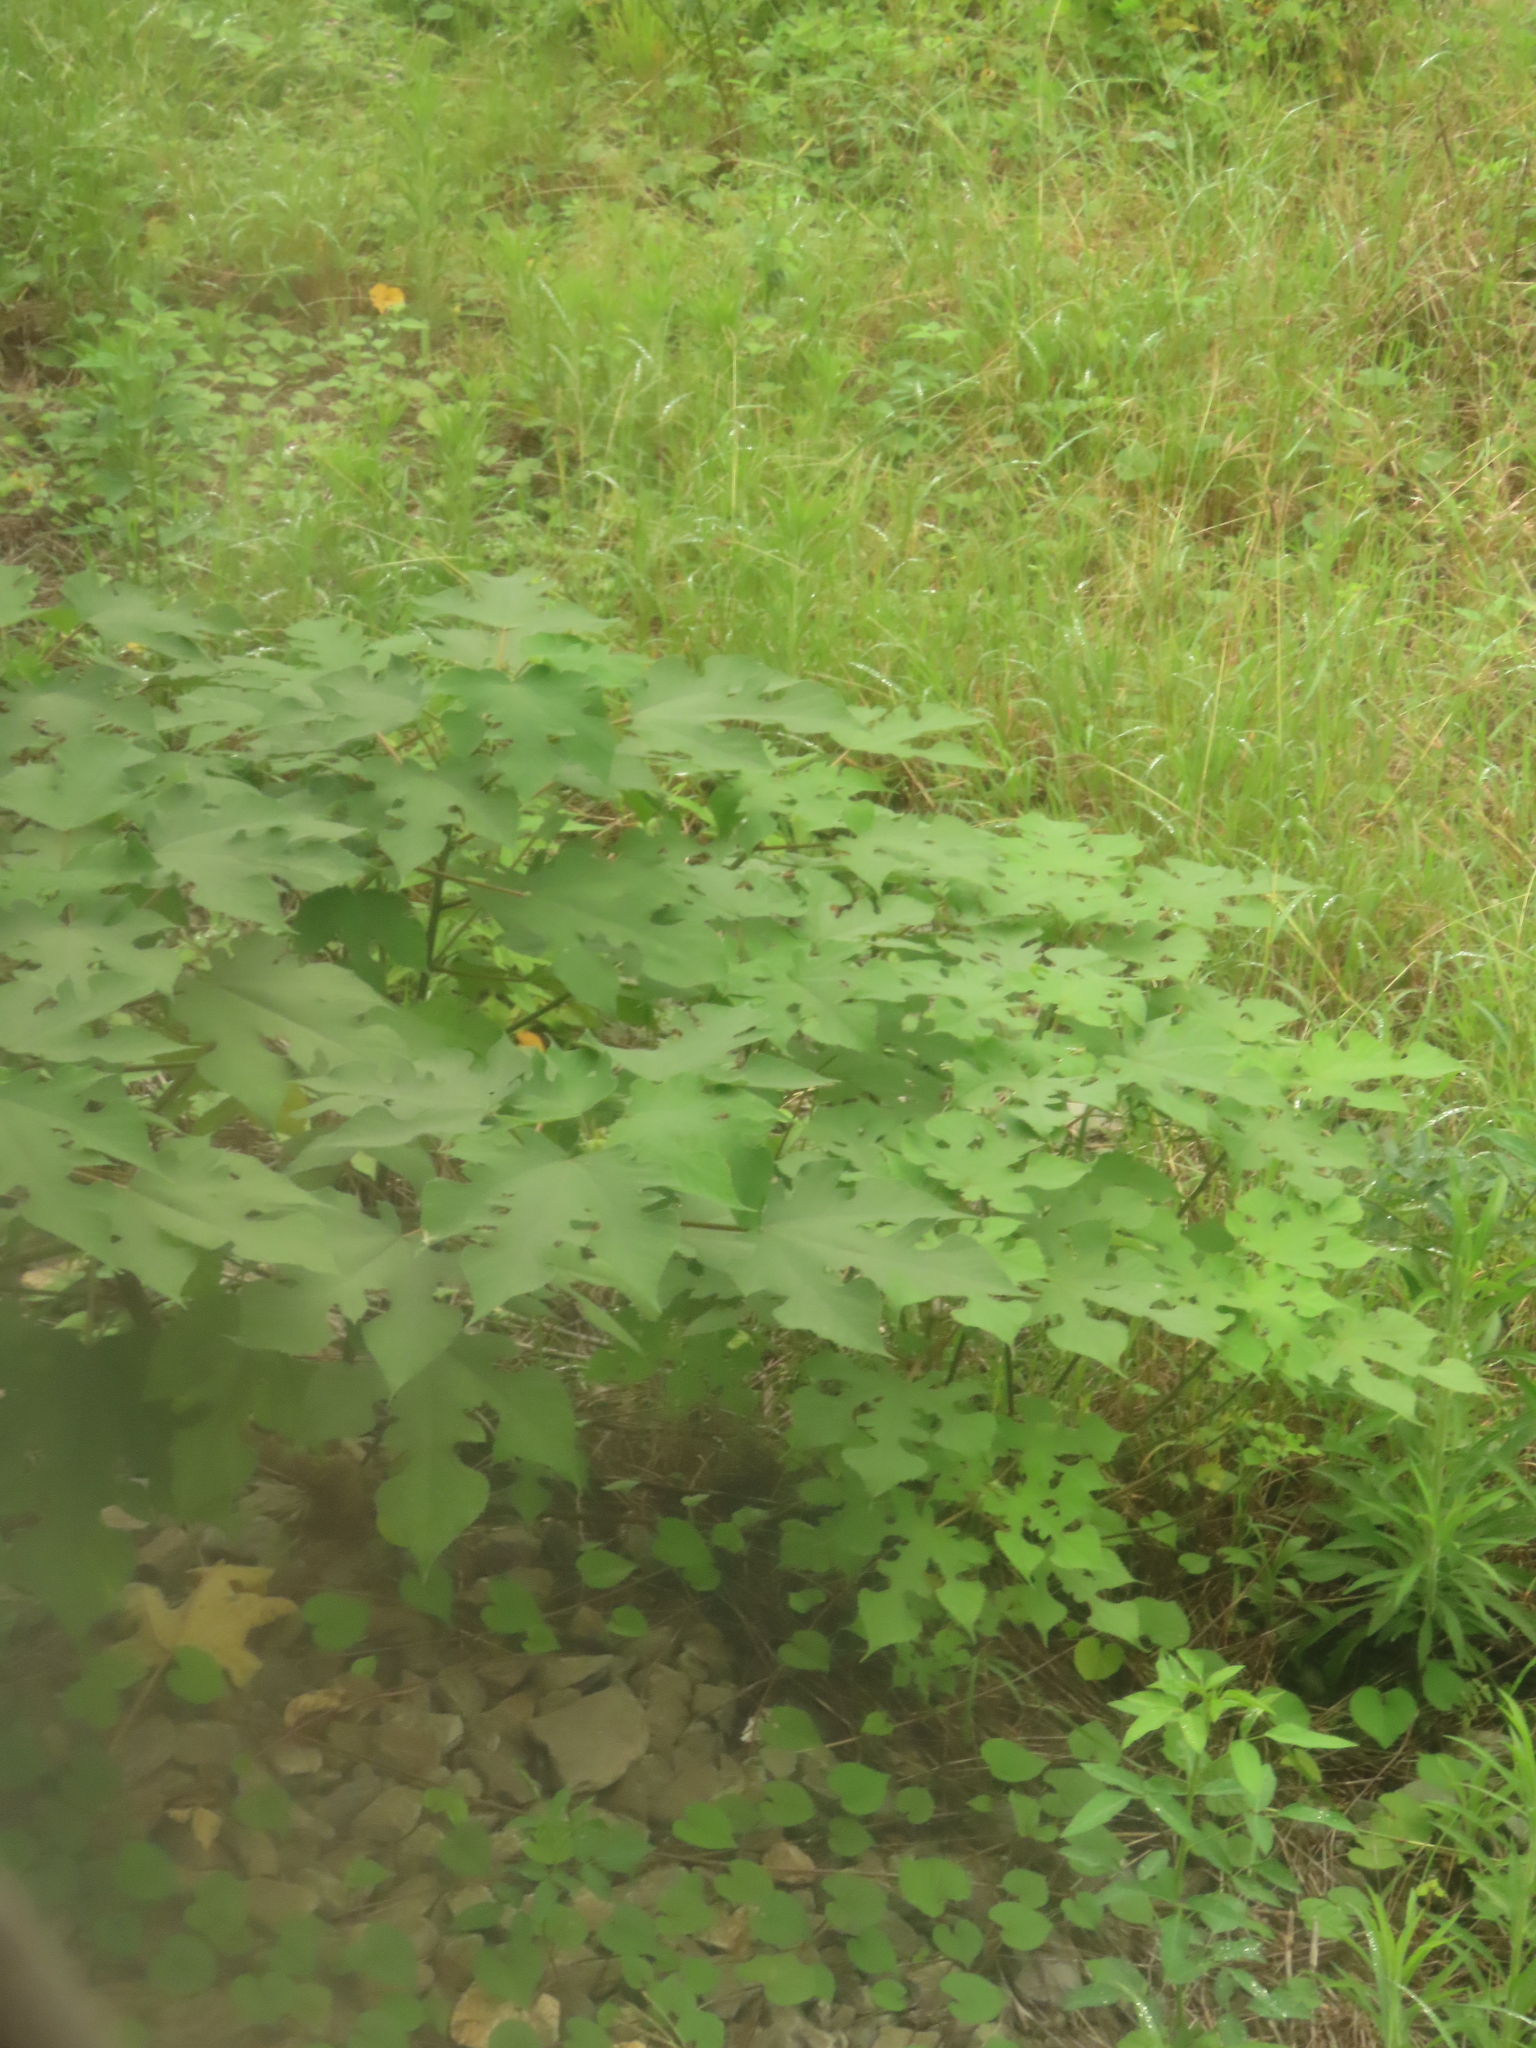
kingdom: Plantae
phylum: Tracheophyta
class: Magnoliopsida
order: Rosales
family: Moraceae
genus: Broussonetia
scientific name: Broussonetia papyrifera
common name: Paper mulberry
